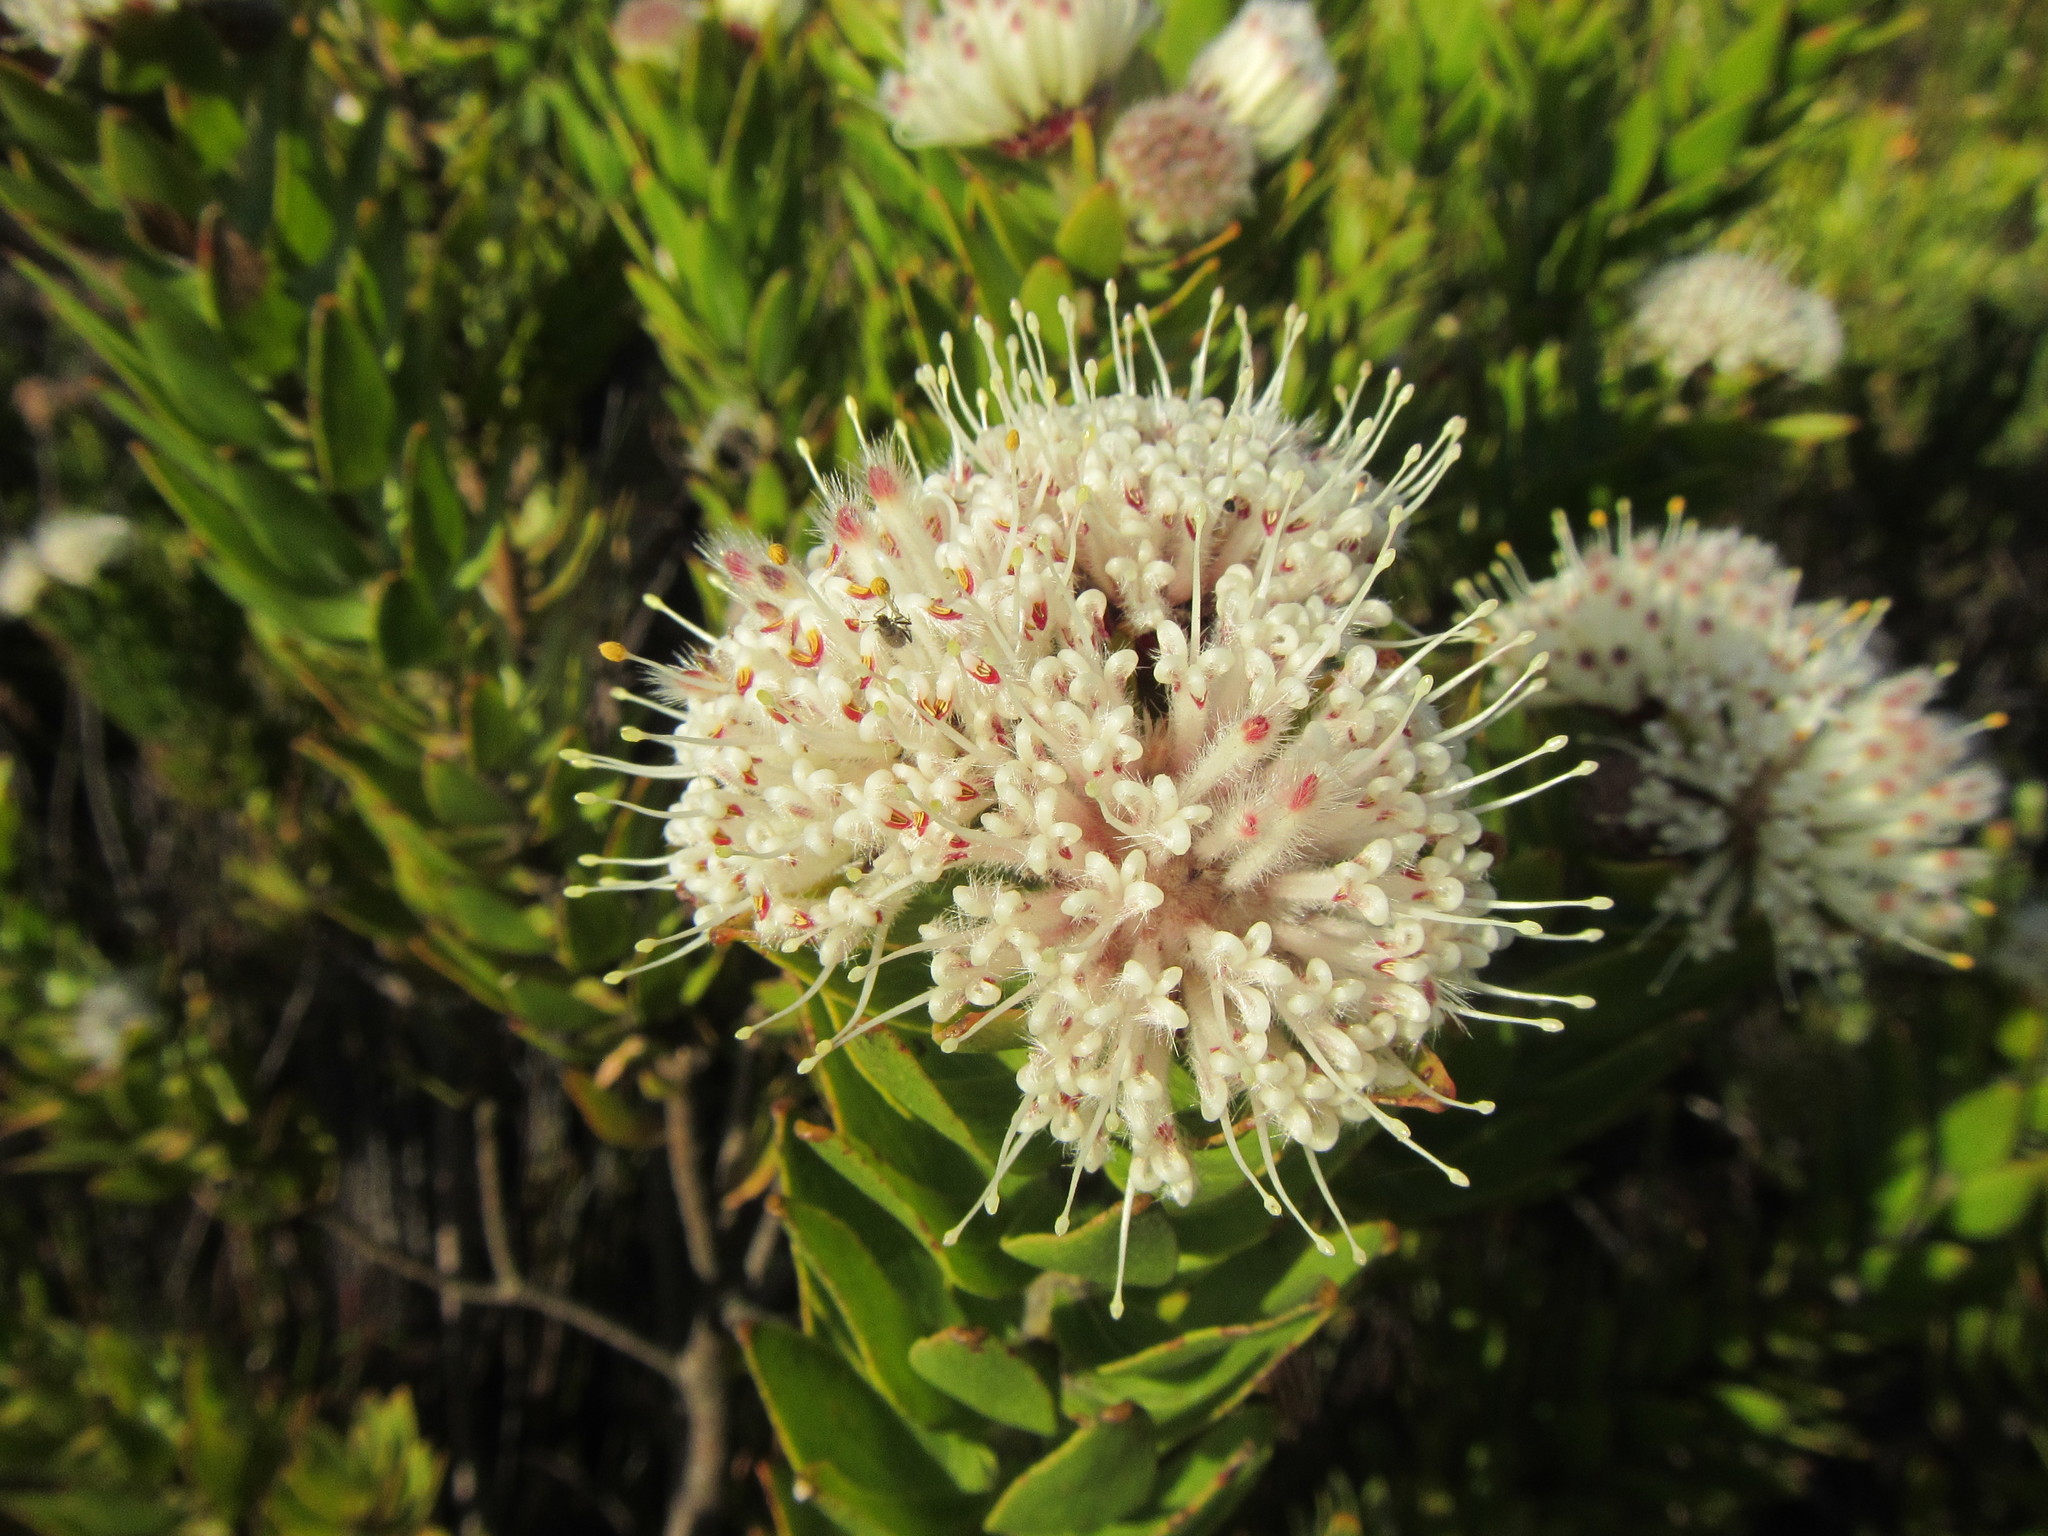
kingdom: Plantae
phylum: Tracheophyta
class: Magnoliopsida
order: Proteales
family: Proteaceae
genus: Leucospermum
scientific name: Leucospermum bolusii
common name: Gordon's bay pincushion
